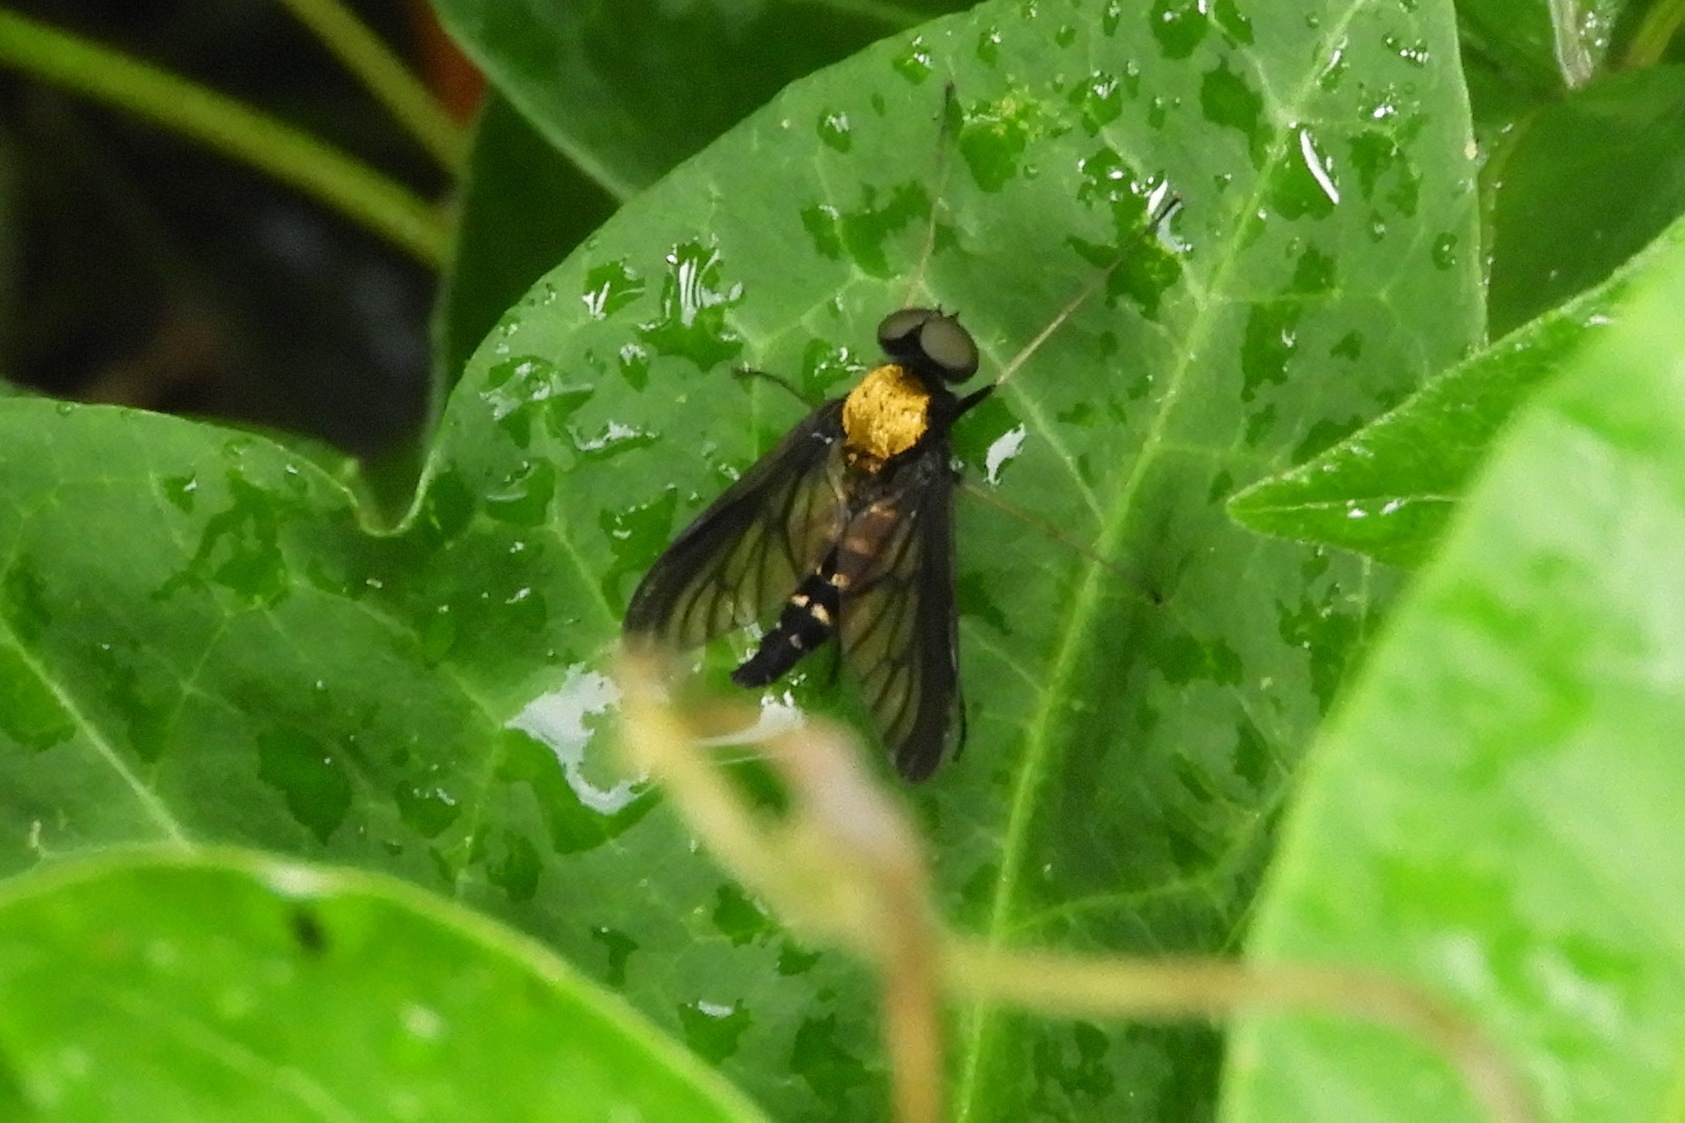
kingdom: Animalia
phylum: Arthropoda
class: Insecta
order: Diptera
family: Rhagionidae
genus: Chrysopilus
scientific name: Chrysopilus thoracicus
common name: Golden-backed snipe fly
